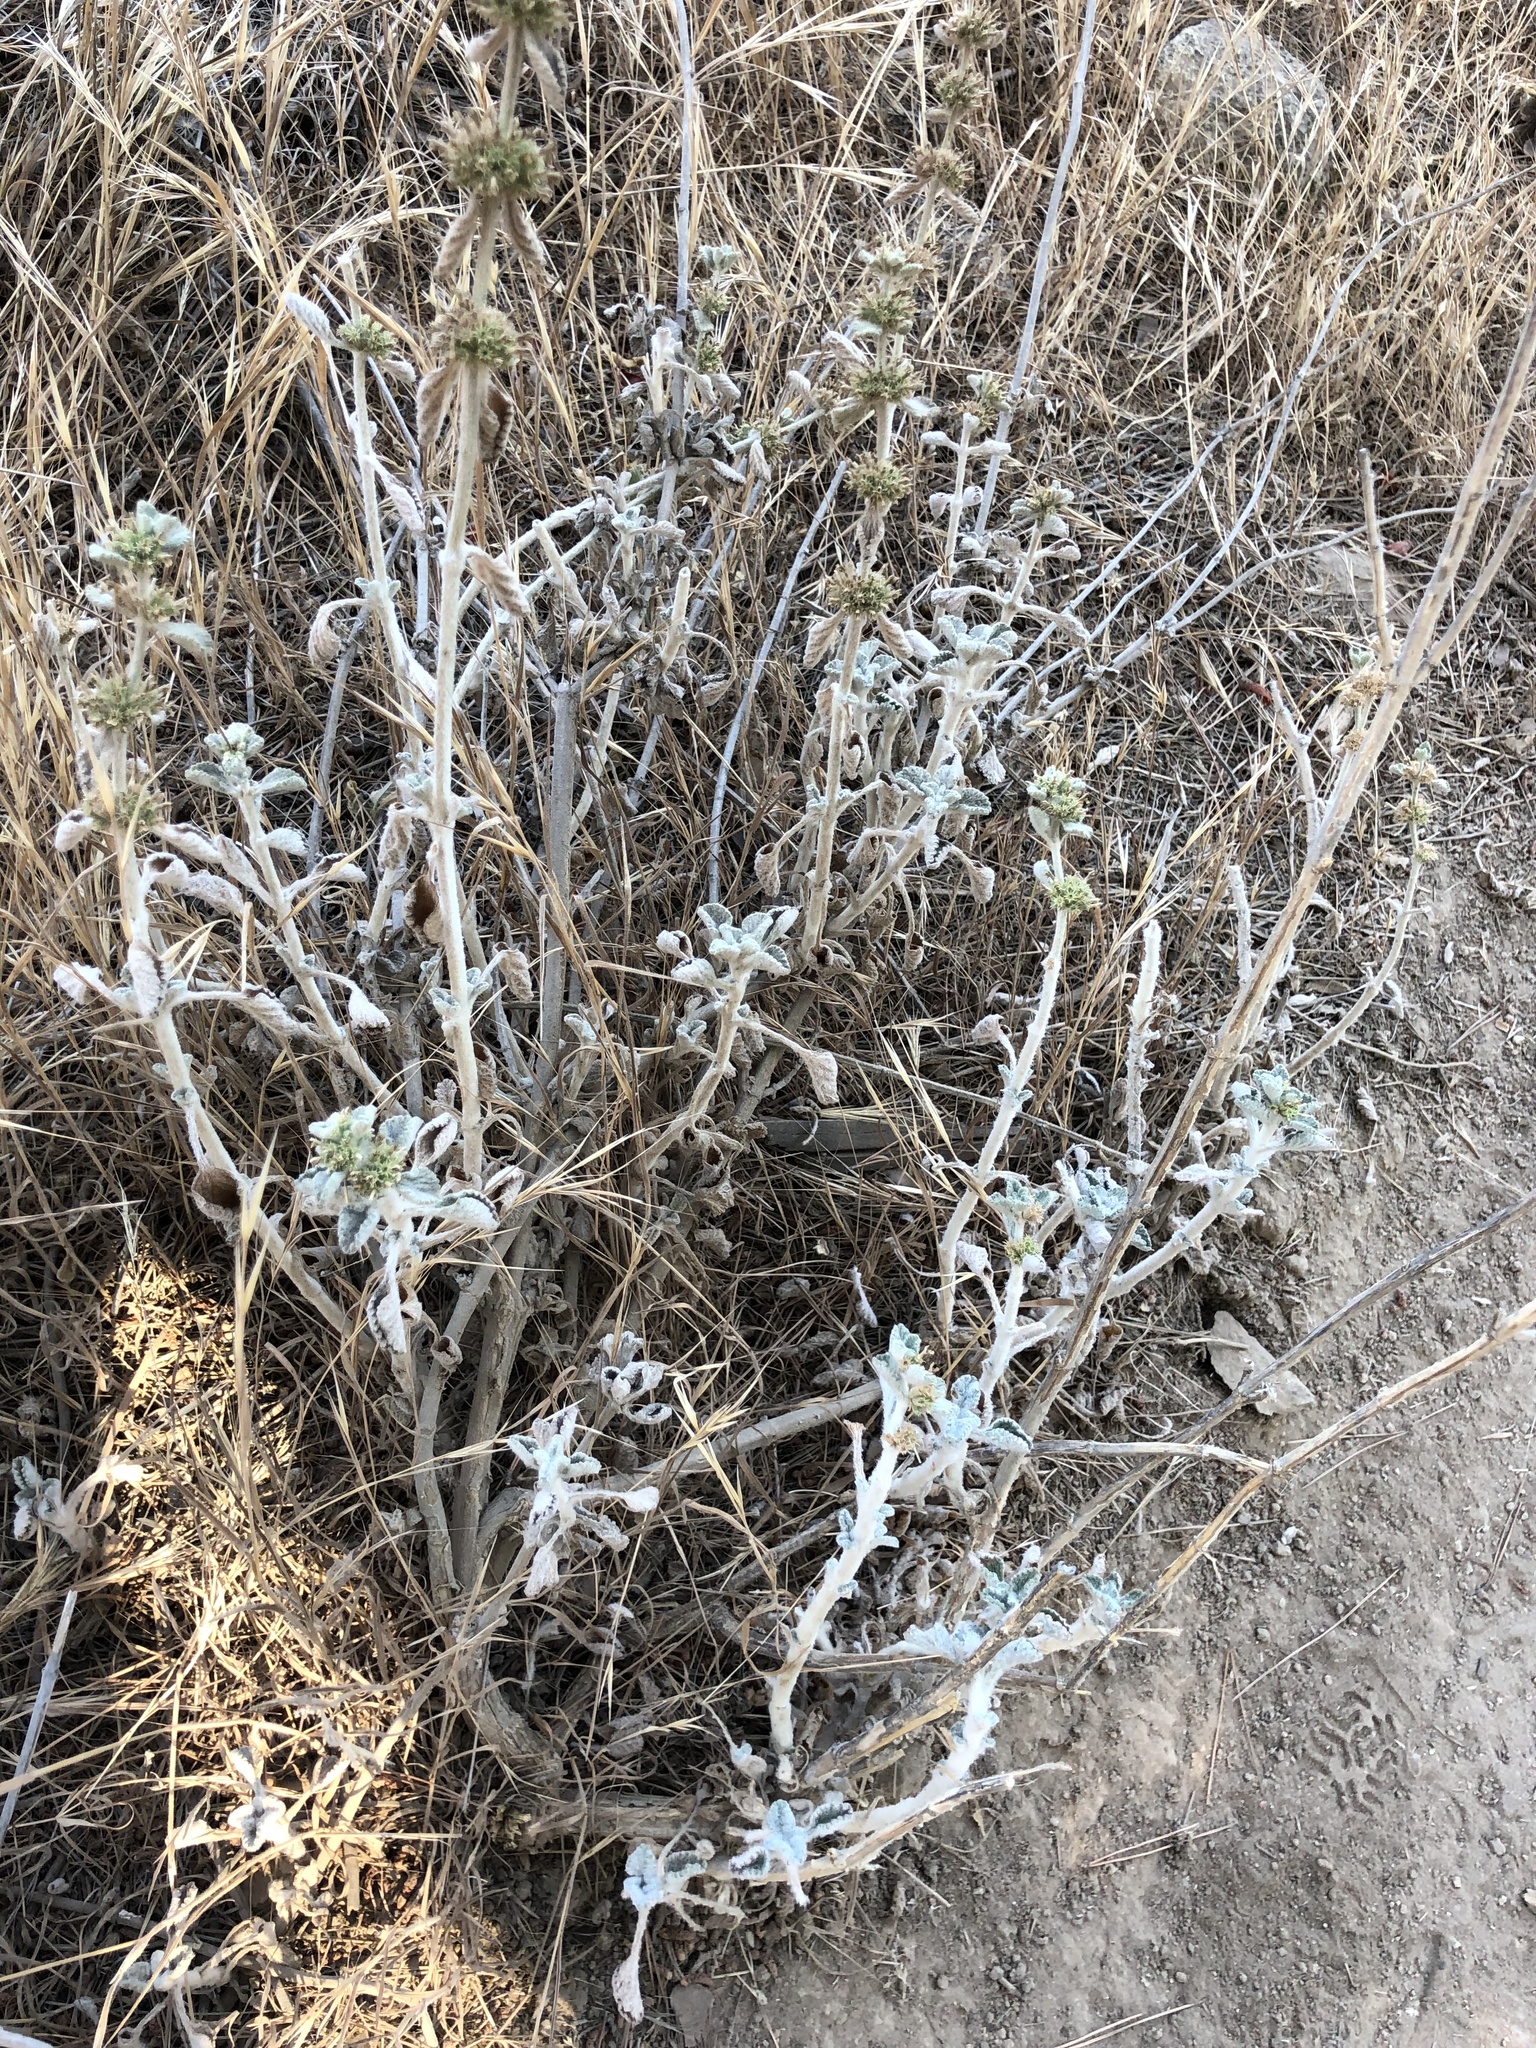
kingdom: Plantae
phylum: Tracheophyta
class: Magnoliopsida
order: Lamiales
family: Lamiaceae
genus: Marrubium
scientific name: Marrubium vulgare
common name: Horehound
